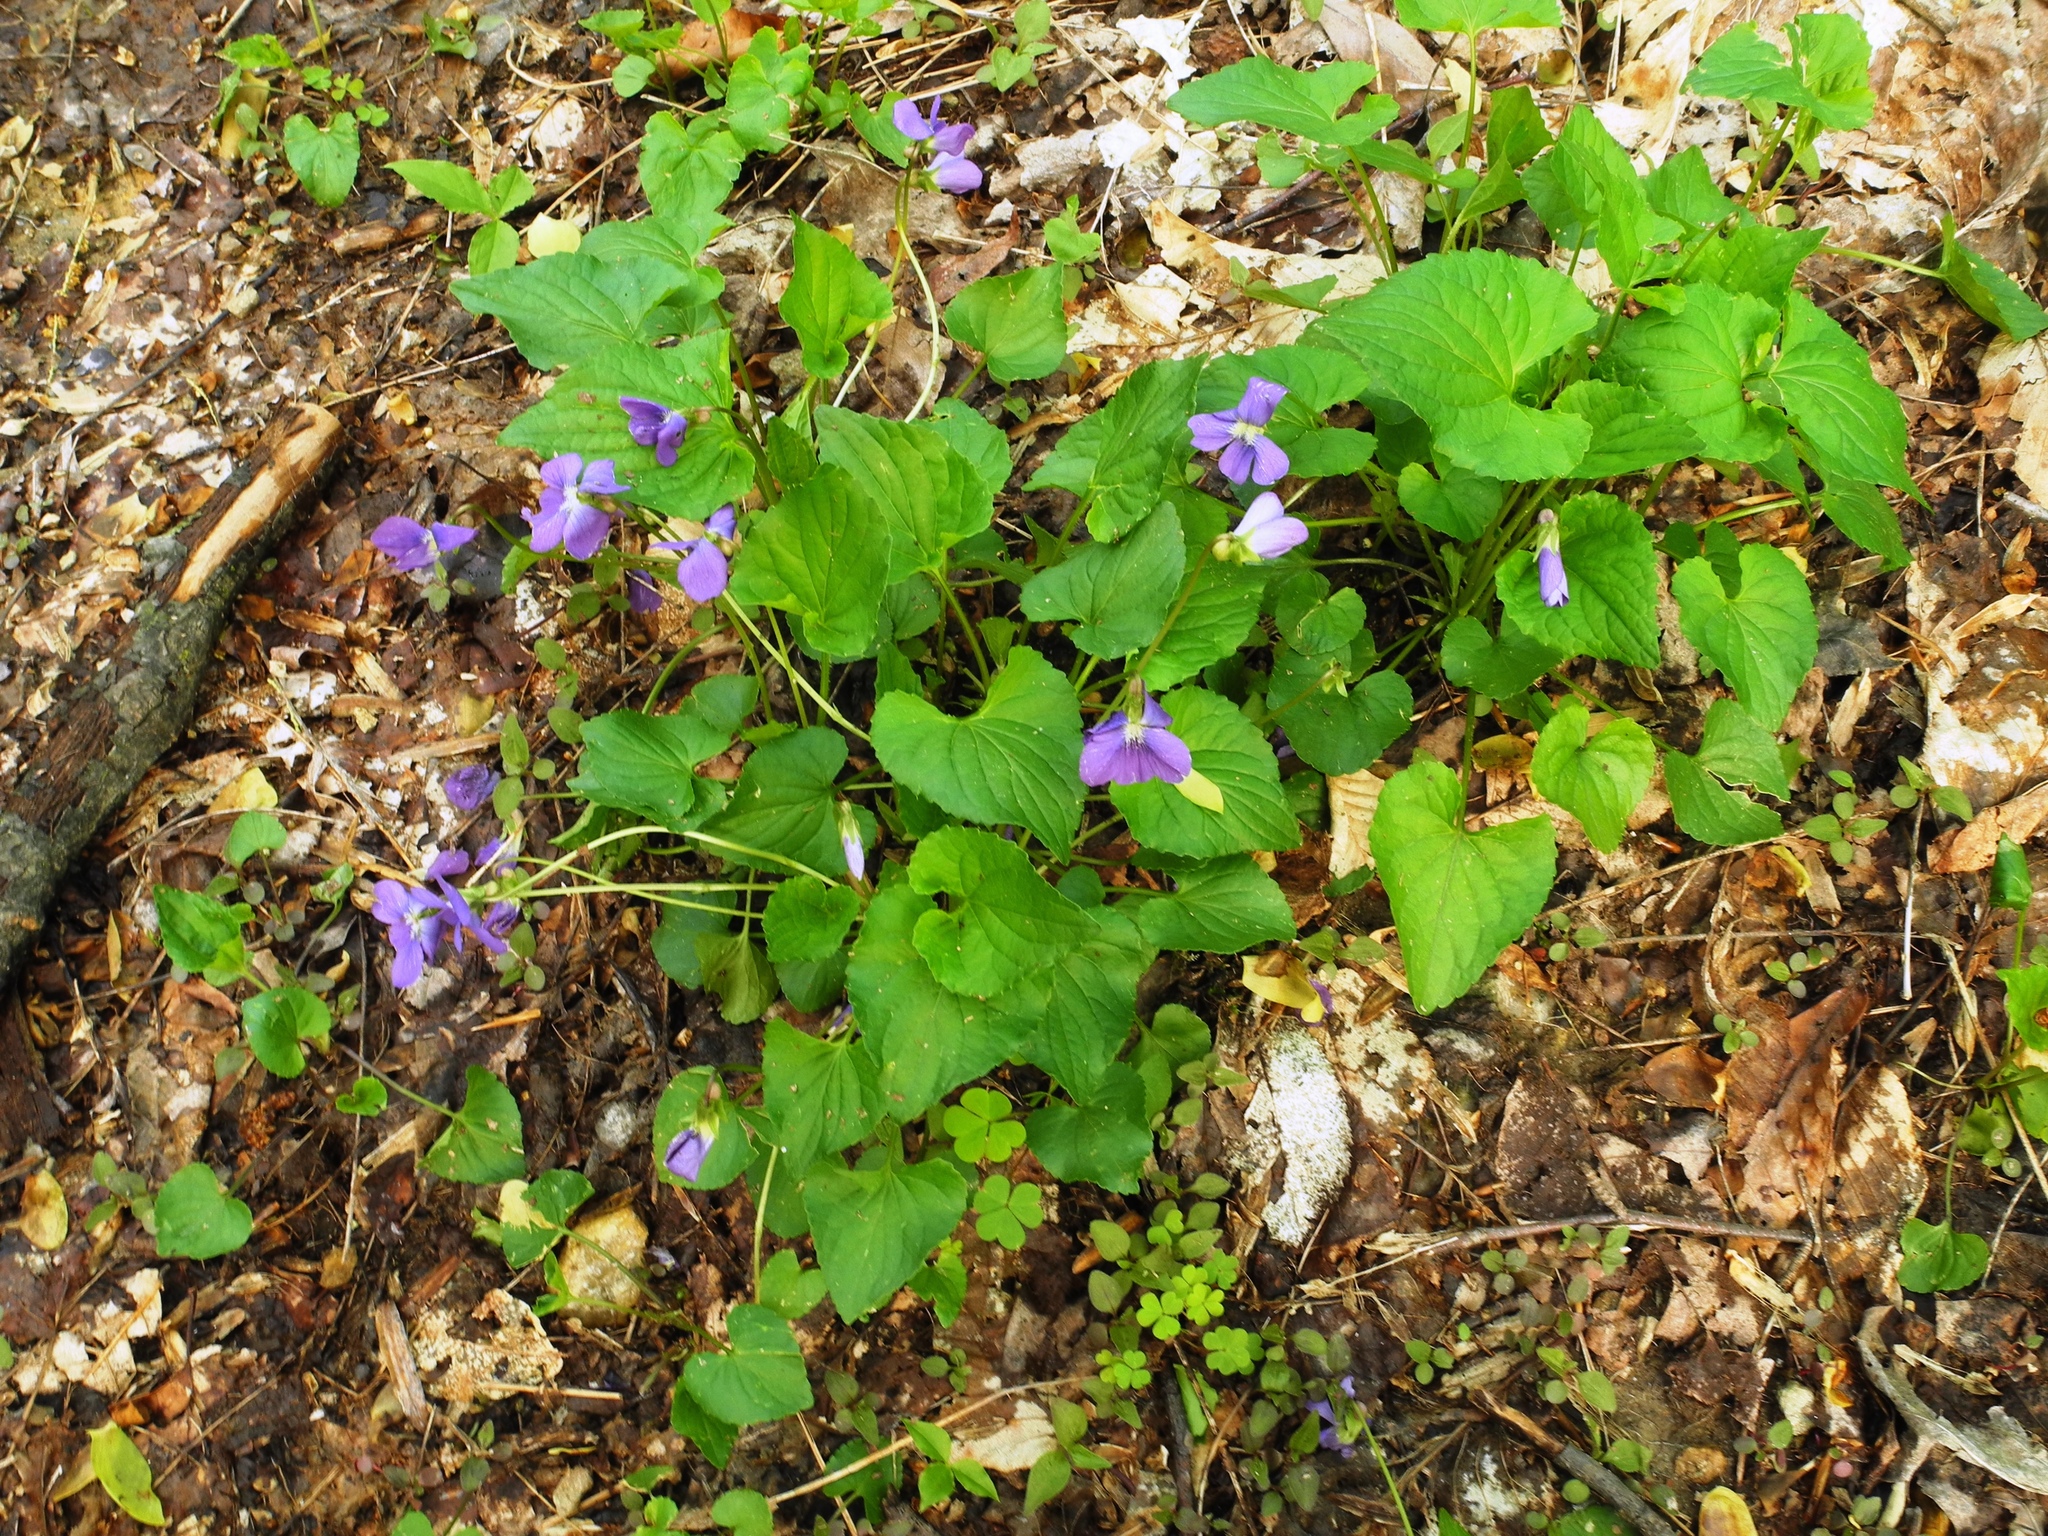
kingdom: Plantae
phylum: Tracheophyta
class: Magnoliopsida
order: Malpighiales
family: Violaceae
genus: Viola
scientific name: Viola sororia
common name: Dooryard violet
